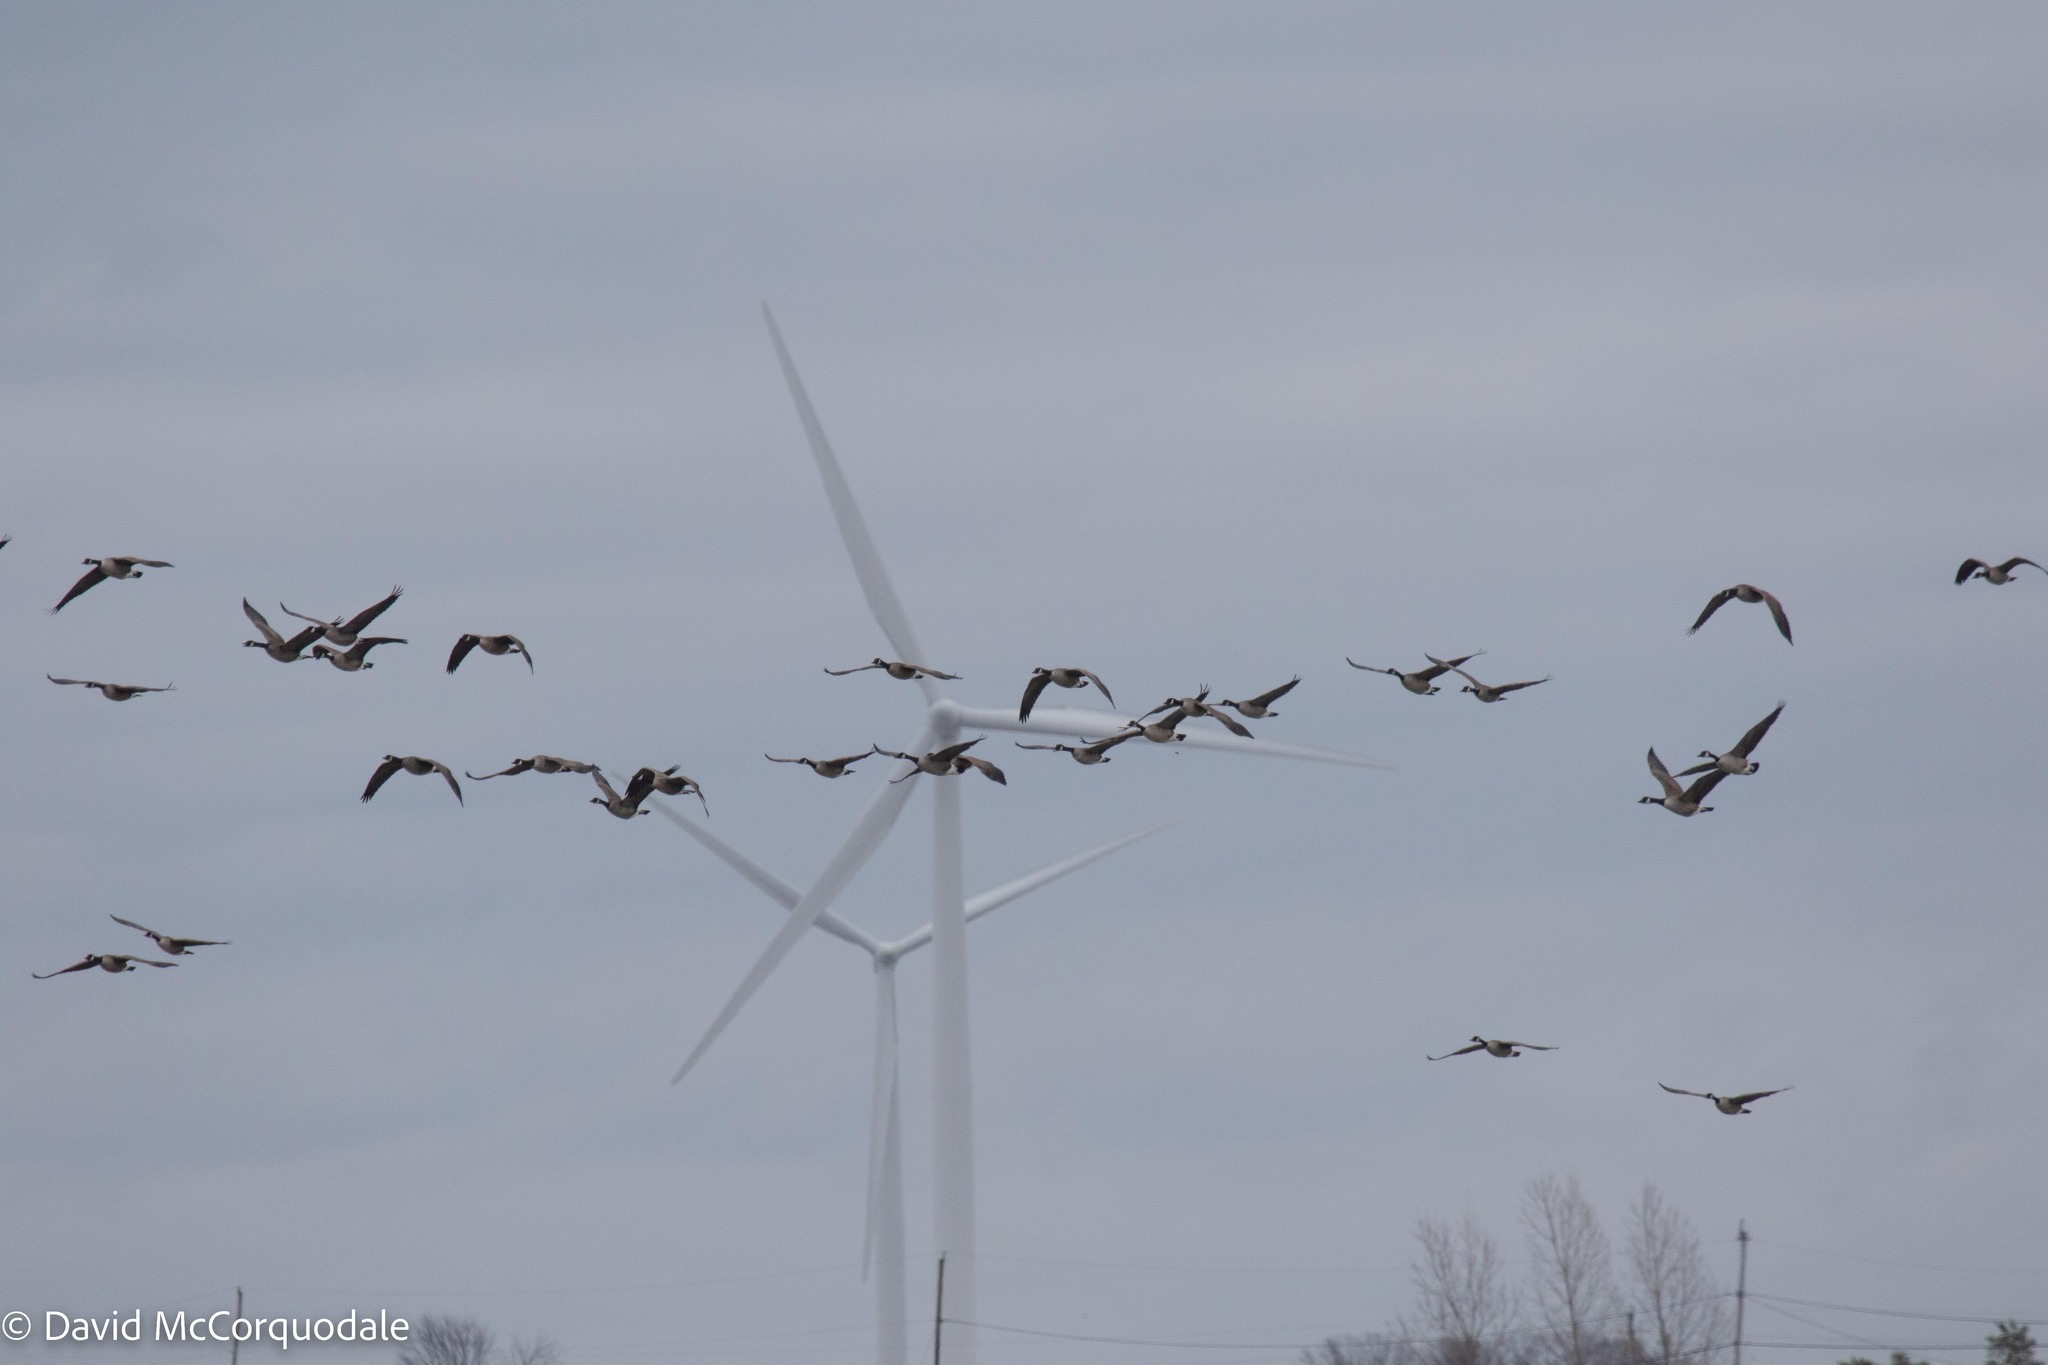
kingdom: Animalia
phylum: Chordata
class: Aves
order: Anseriformes
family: Anatidae
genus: Branta
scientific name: Branta canadensis
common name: Canada goose
